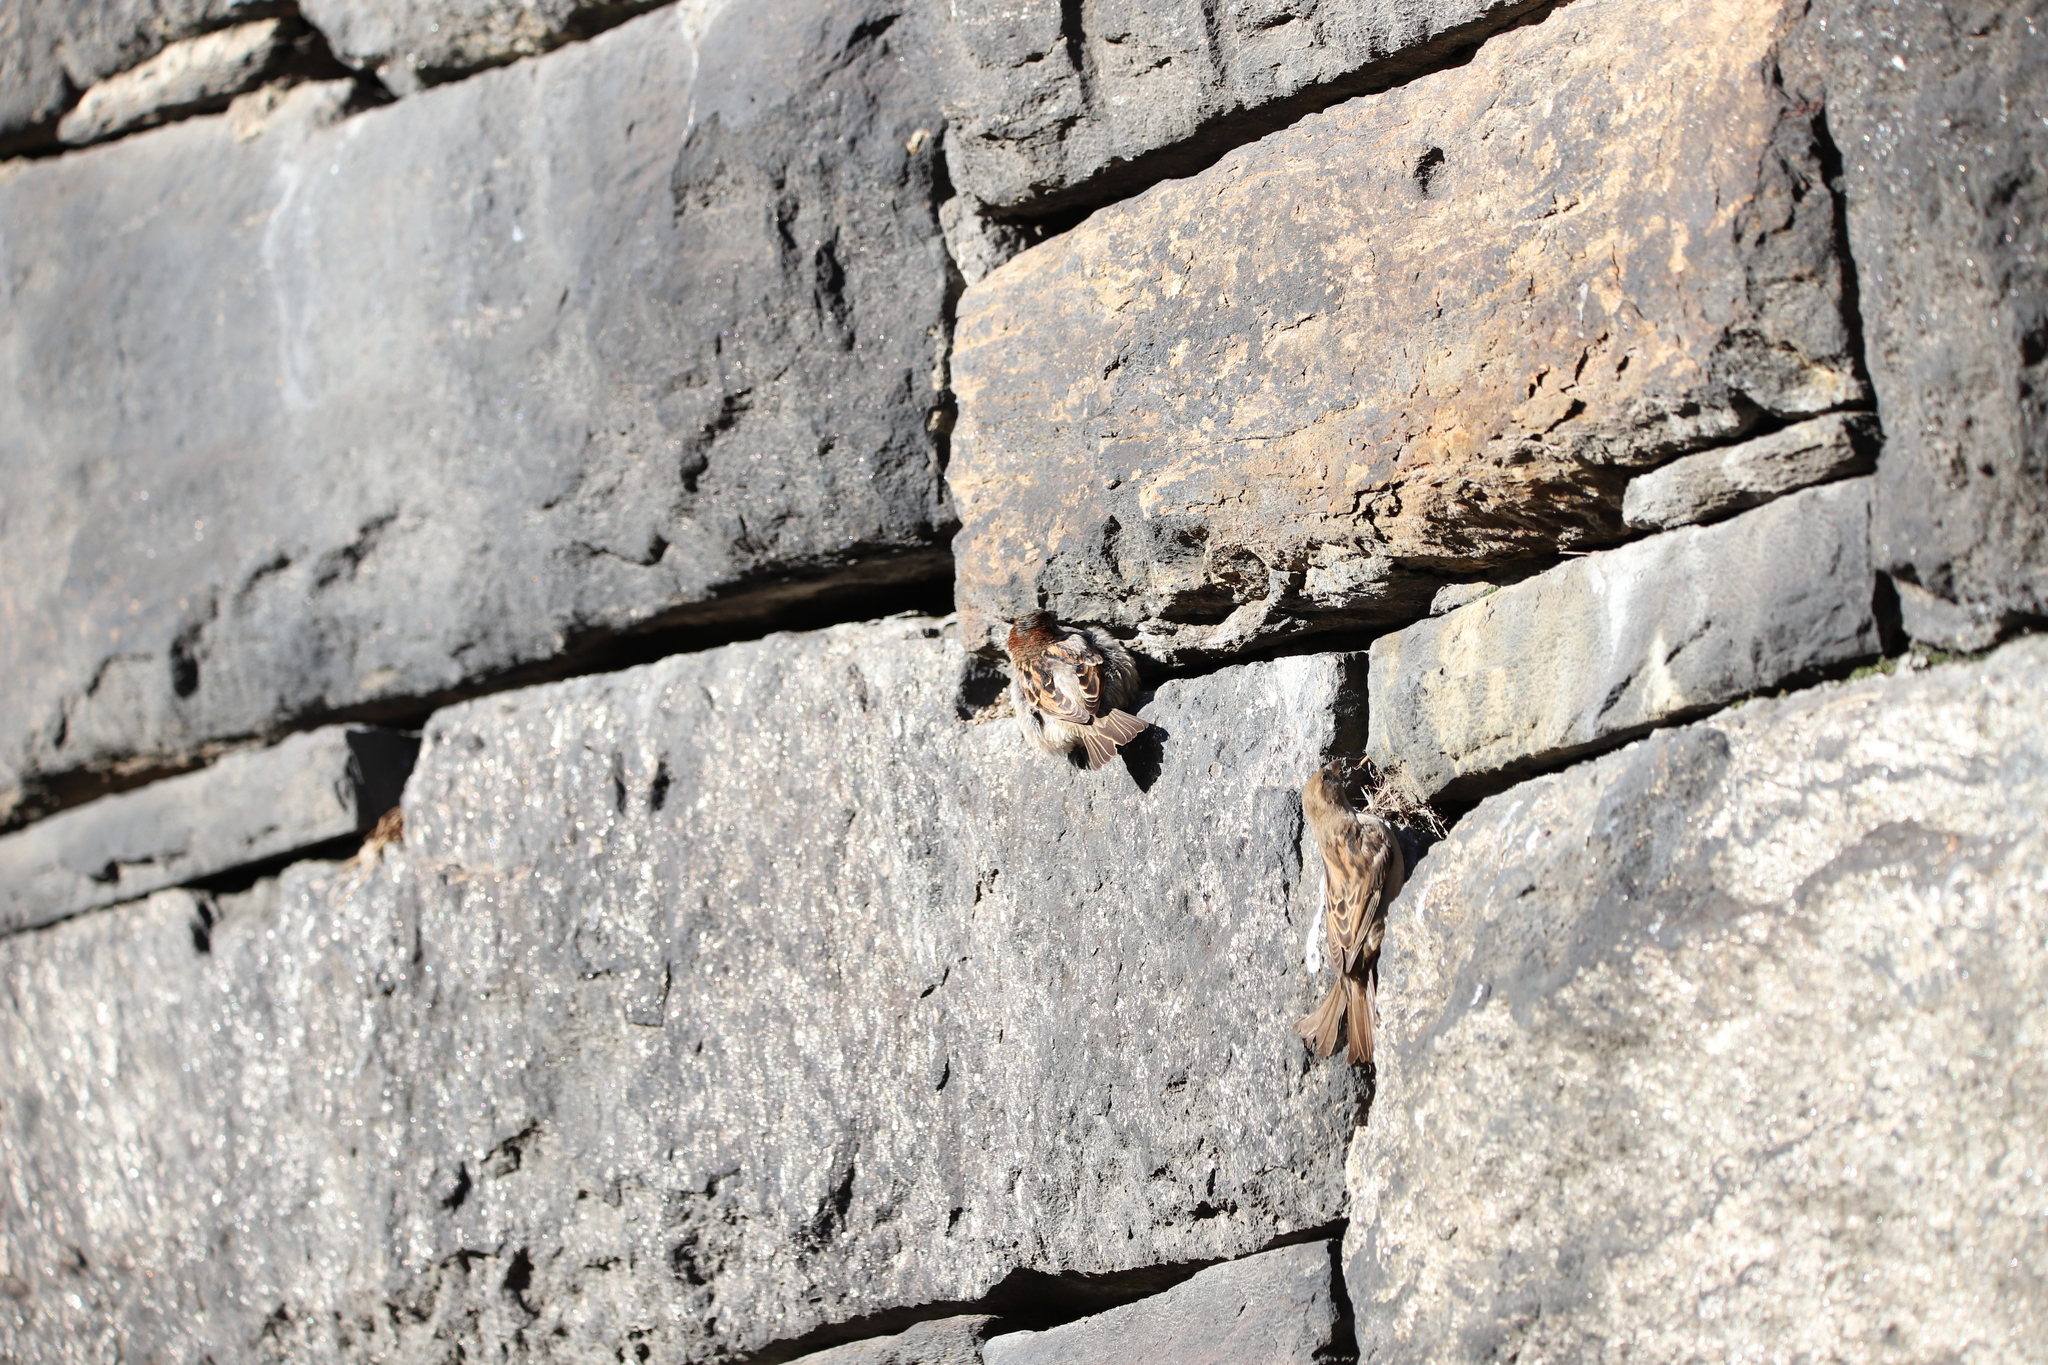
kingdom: Animalia
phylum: Chordata
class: Aves
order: Passeriformes
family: Passeridae
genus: Passer
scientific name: Passer domesticus
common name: House sparrow
